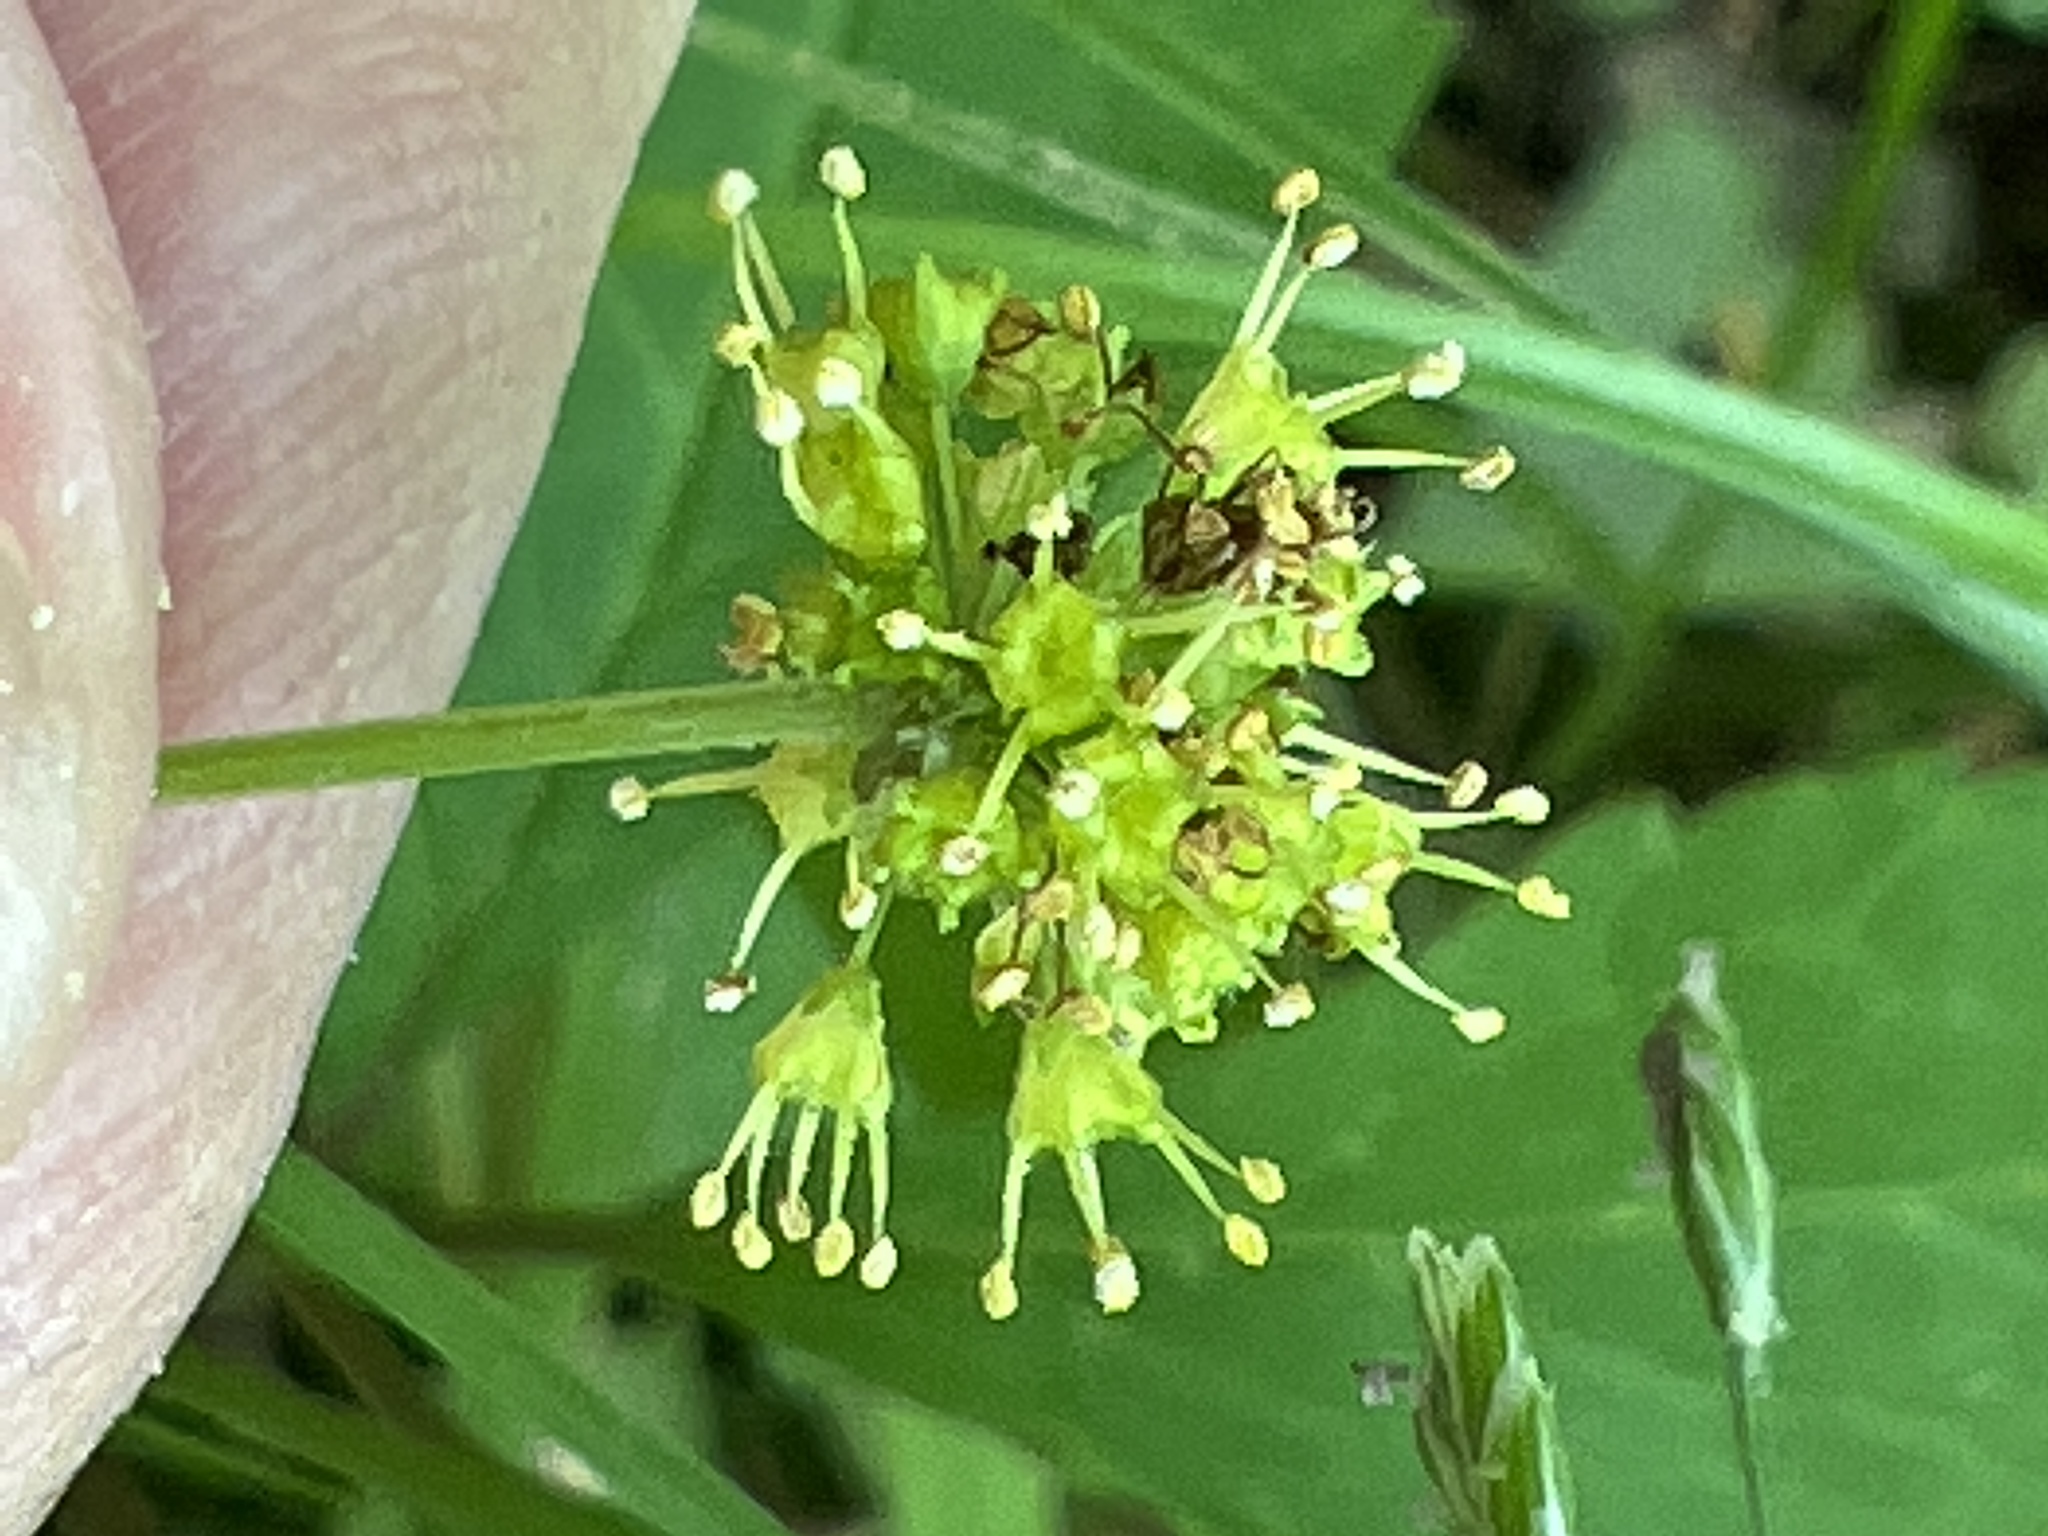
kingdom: Plantae
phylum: Tracheophyta
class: Magnoliopsida
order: Apiales
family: Apiaceae
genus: Sanicula
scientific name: Sanicula odorata
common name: Cluster sanicle
